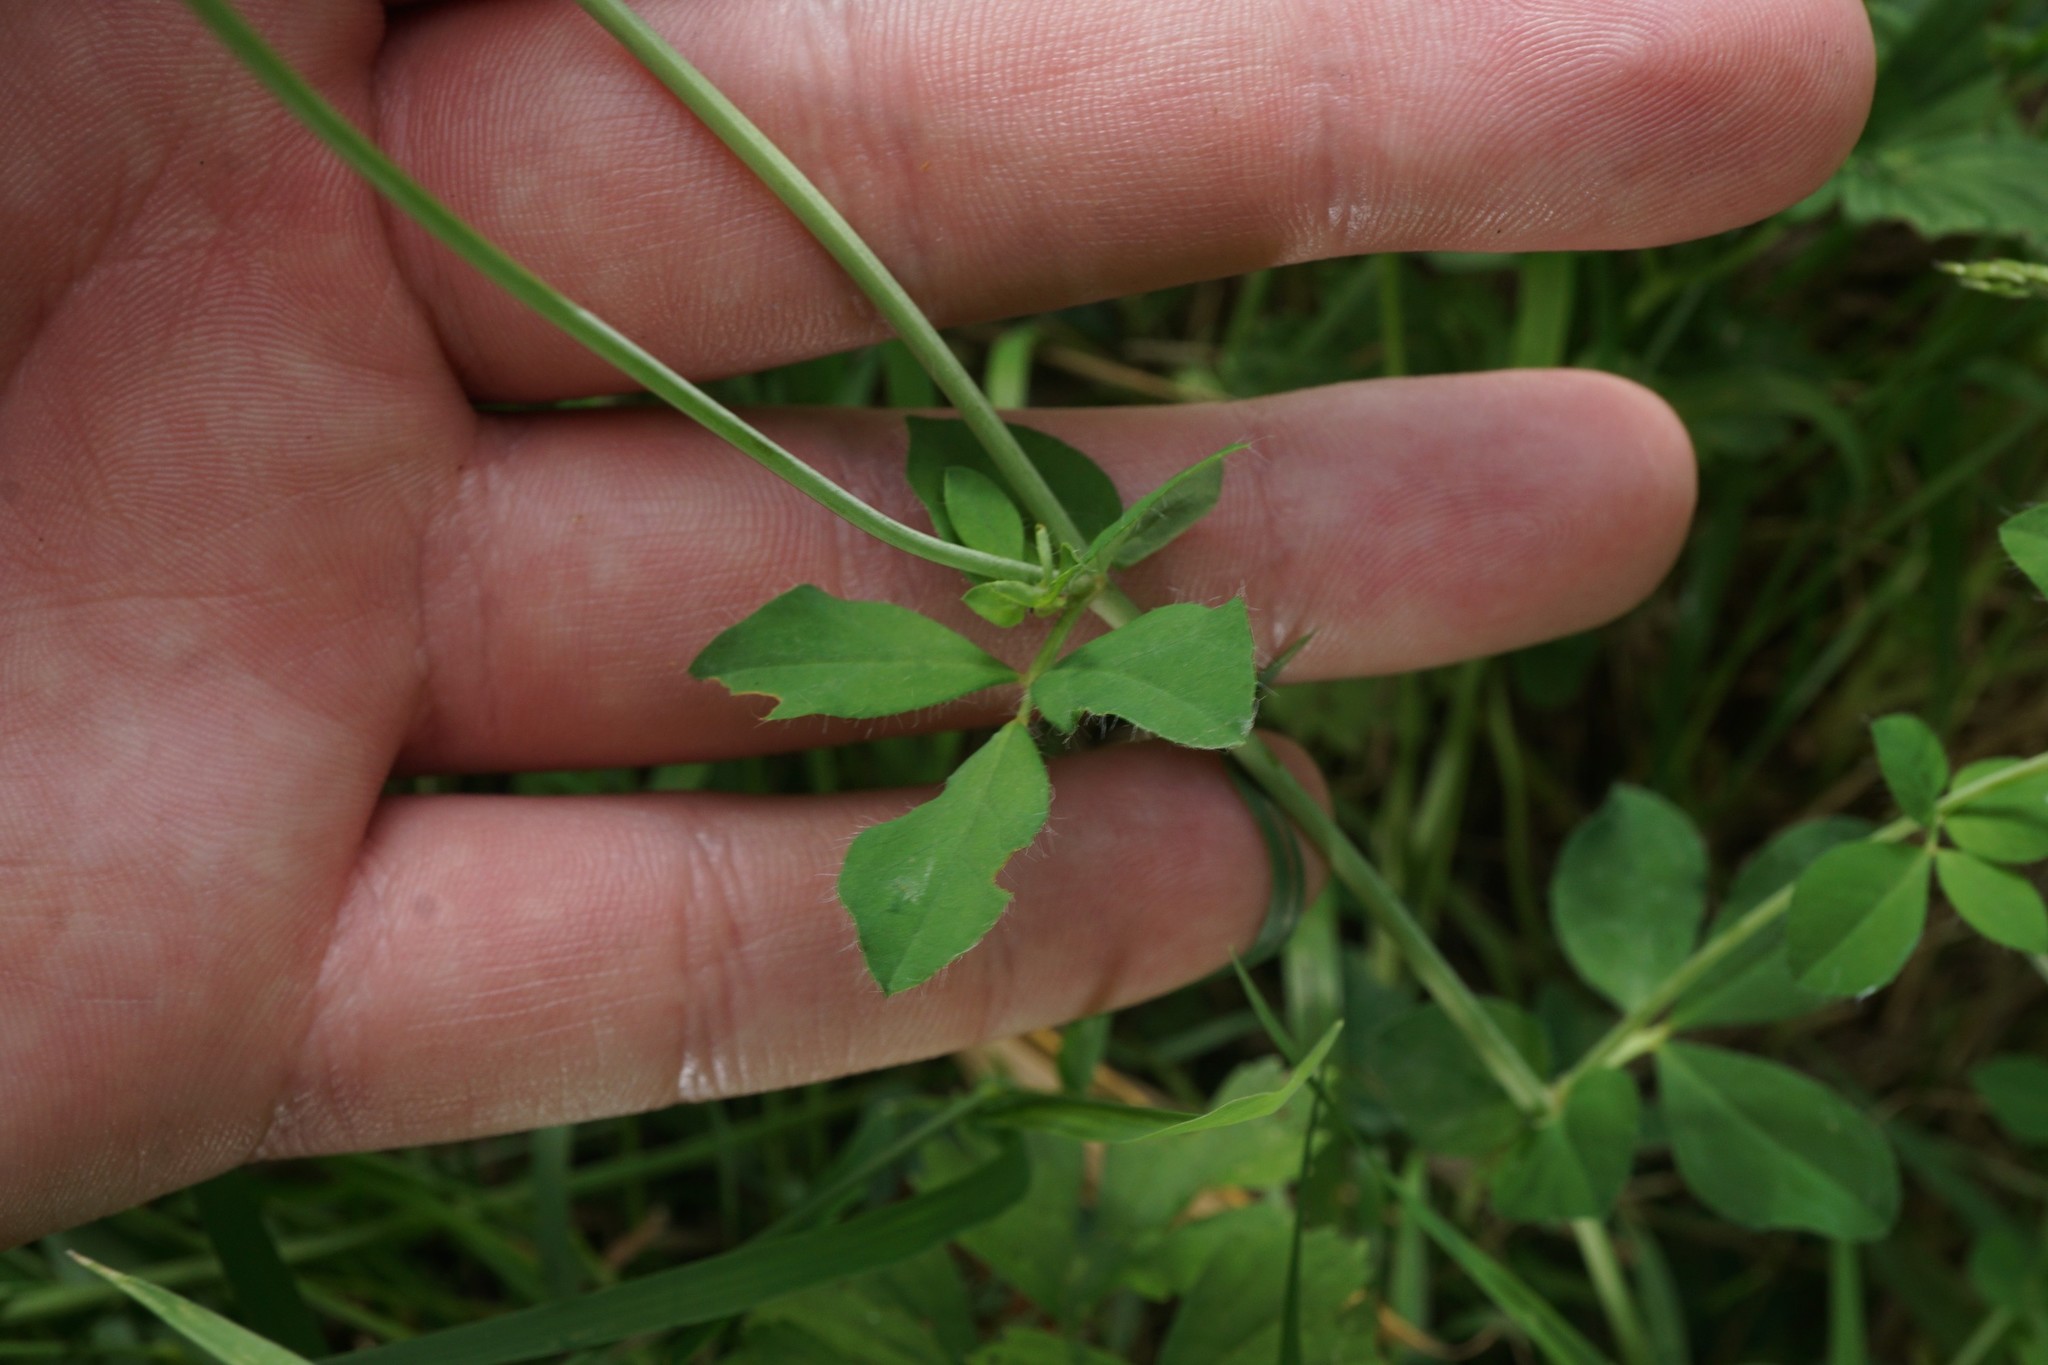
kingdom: Plantae
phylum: Tracheophyta
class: Magnoliopsida
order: Fabales
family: Fabaceae
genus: Lotus
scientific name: Lotus pedunculatus
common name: Greater birdsfoot-trefoil
